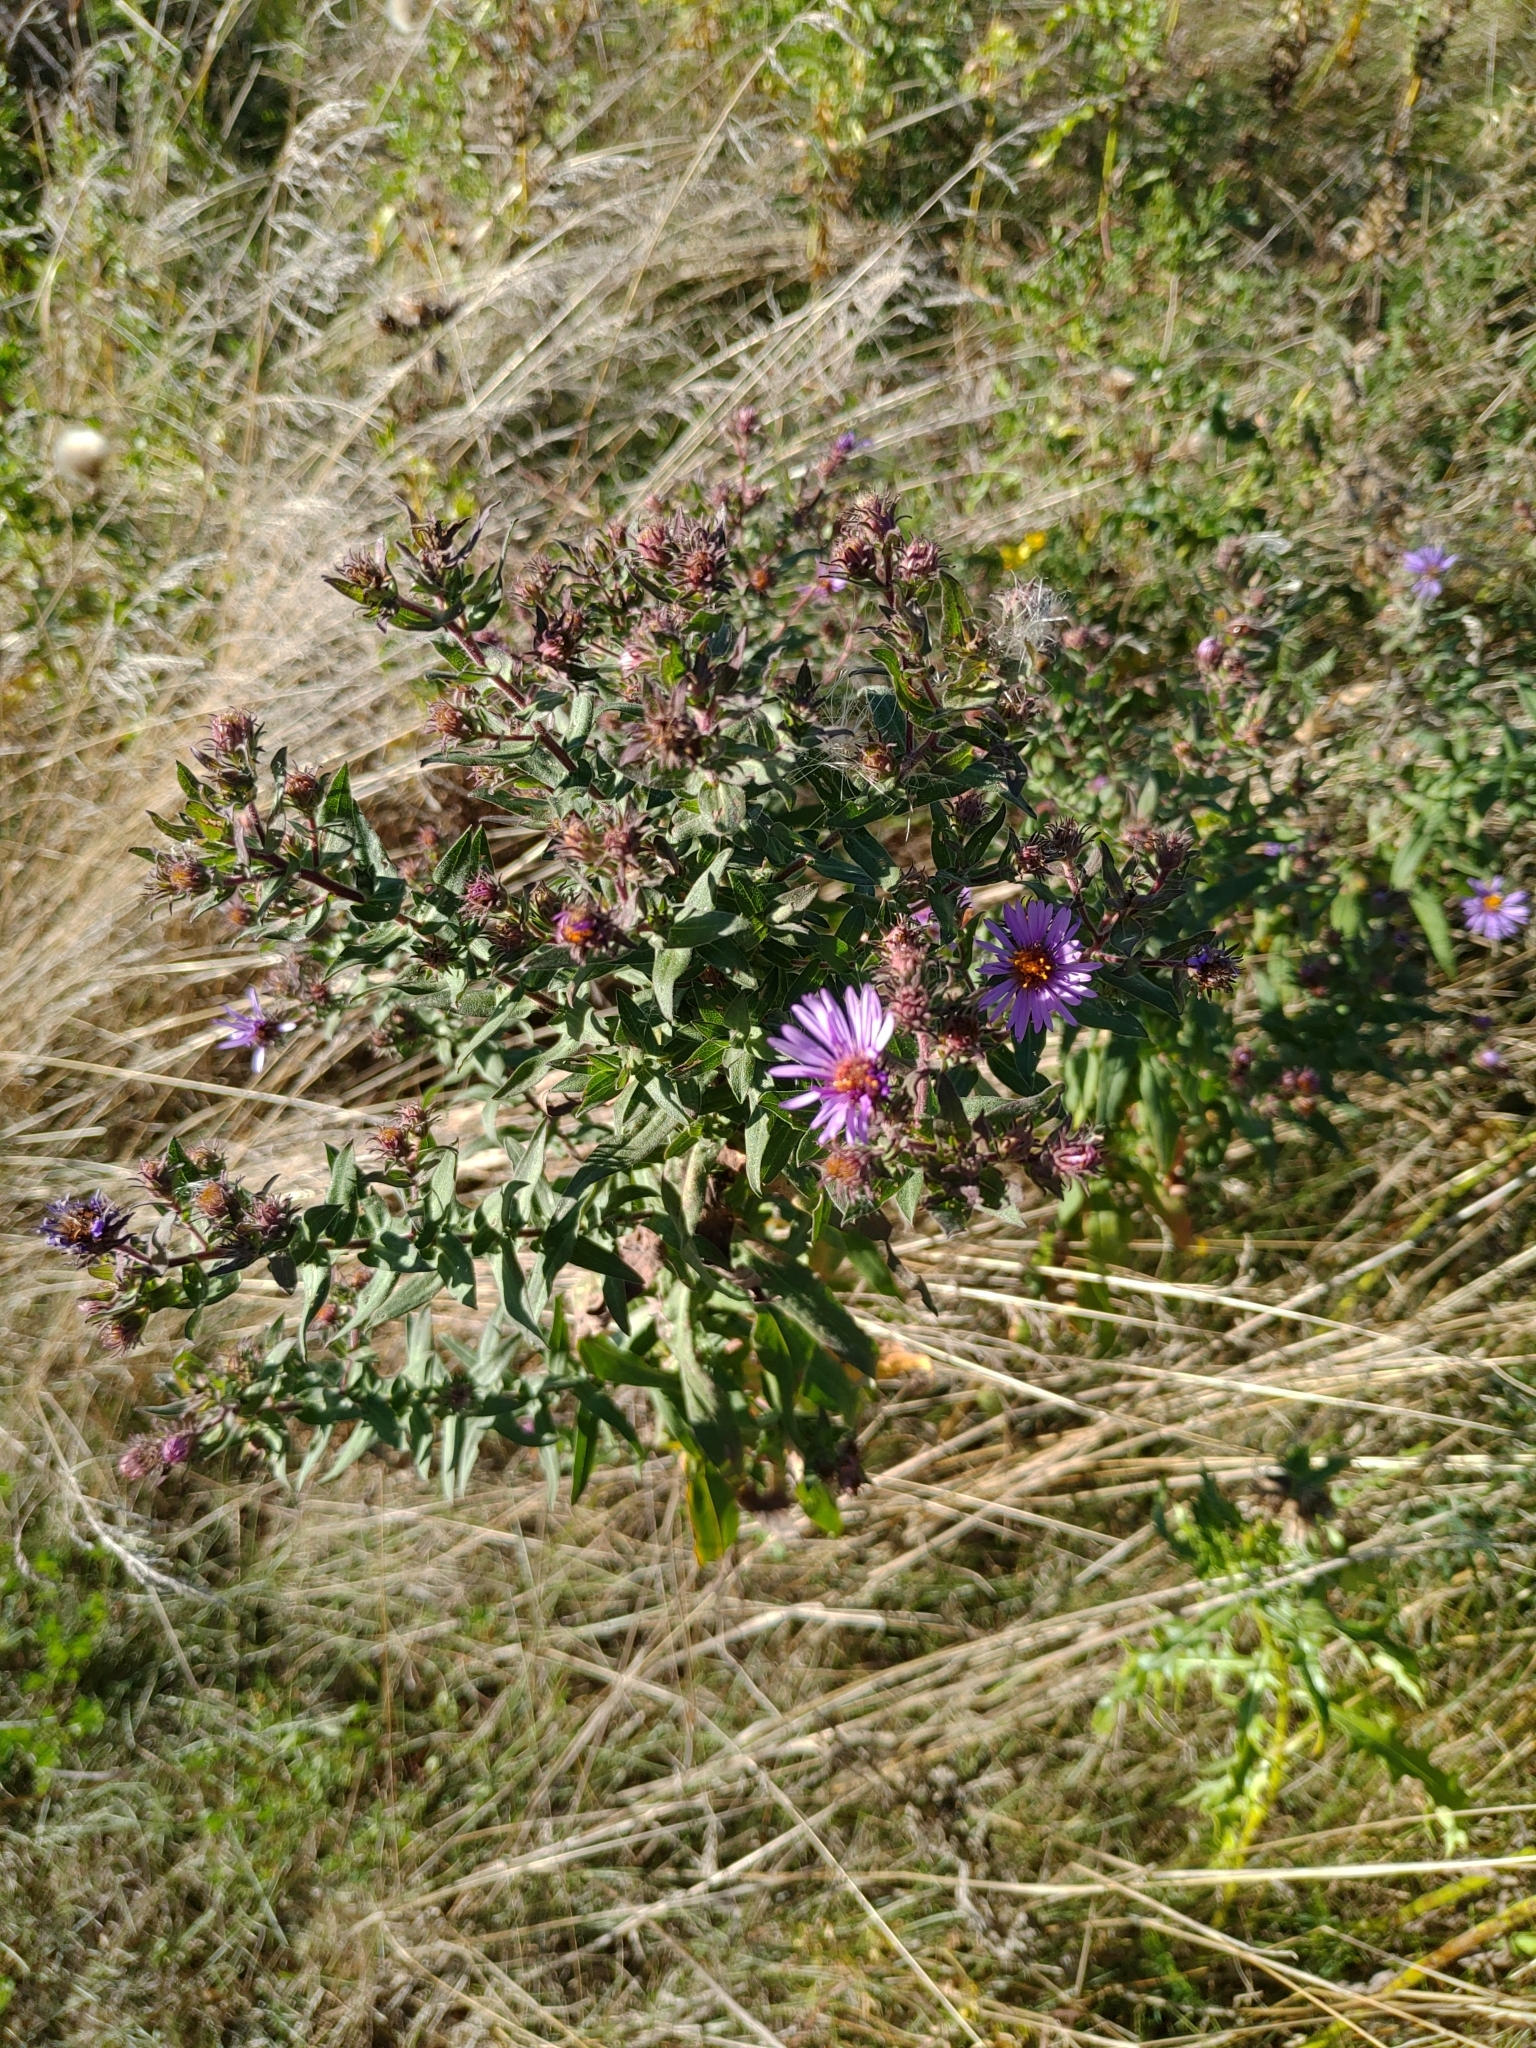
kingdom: Plantae
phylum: Tracheophyta
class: Magnoliopsida
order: Asterales
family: Asteraceae
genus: Symphyotrichum
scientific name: Symphyotrichum novae-angliae
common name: Michaelmas daisy
